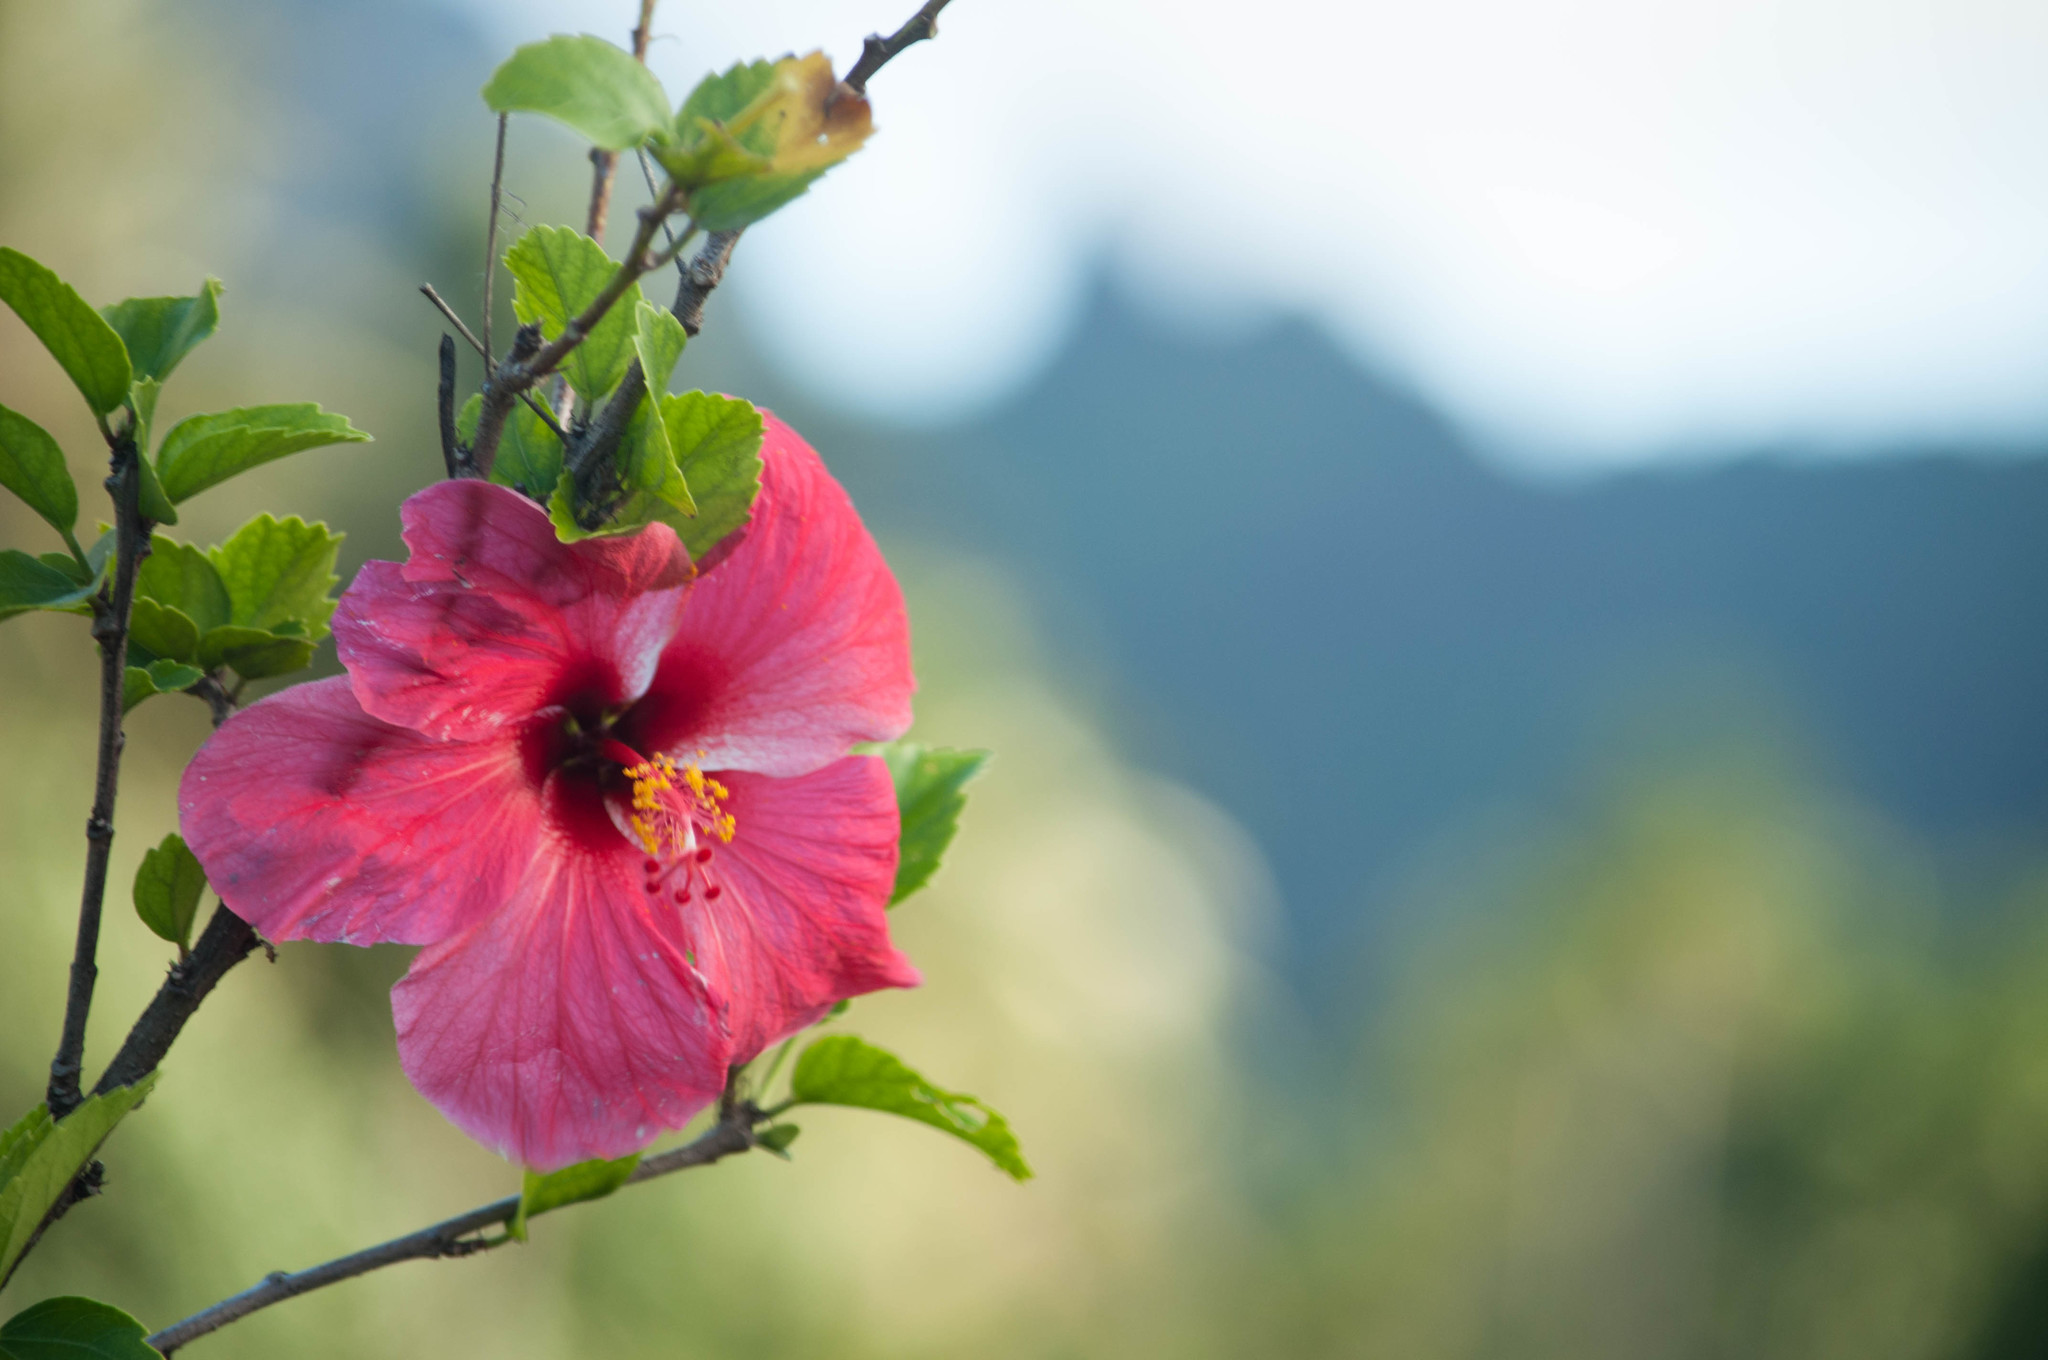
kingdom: Plantae
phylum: Tracheophyta
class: Magnoliopsida
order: Malvales
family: Malvaceae
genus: Hibiscus
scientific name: Hibiscus rosa-sinensis
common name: Hibiscus
